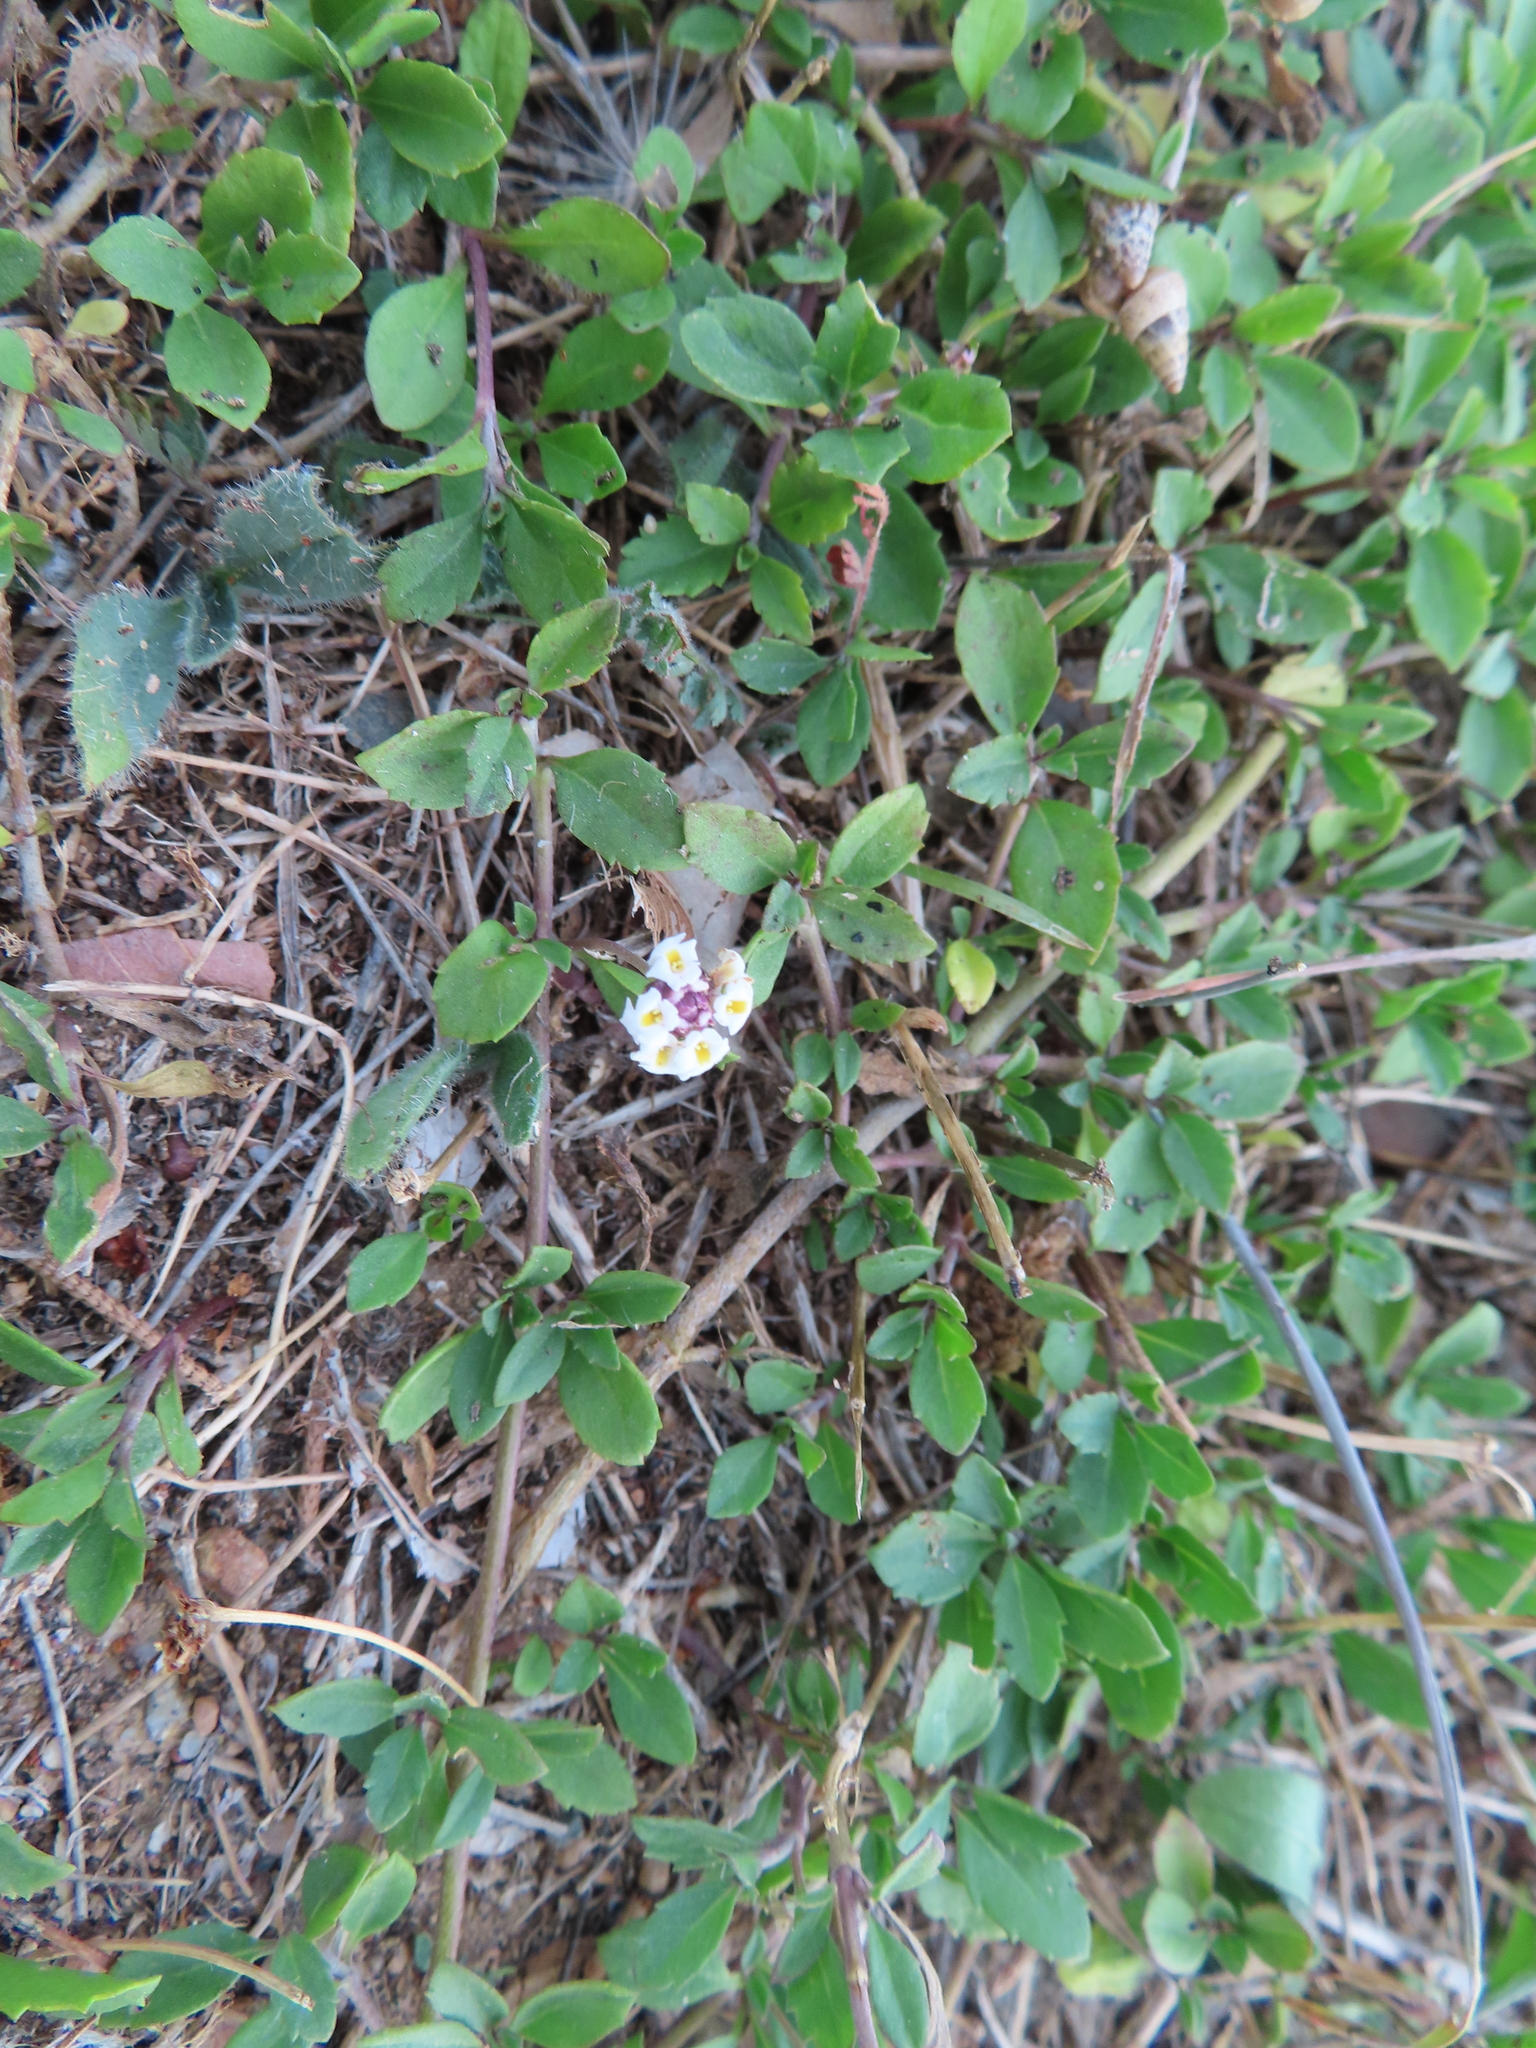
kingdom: Plantae
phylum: Tracheophyta
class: Magnoliopsida
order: Lamiales
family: Verbenaceae
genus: Phyla
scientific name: Phyla nodiflora
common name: Frogfruit
